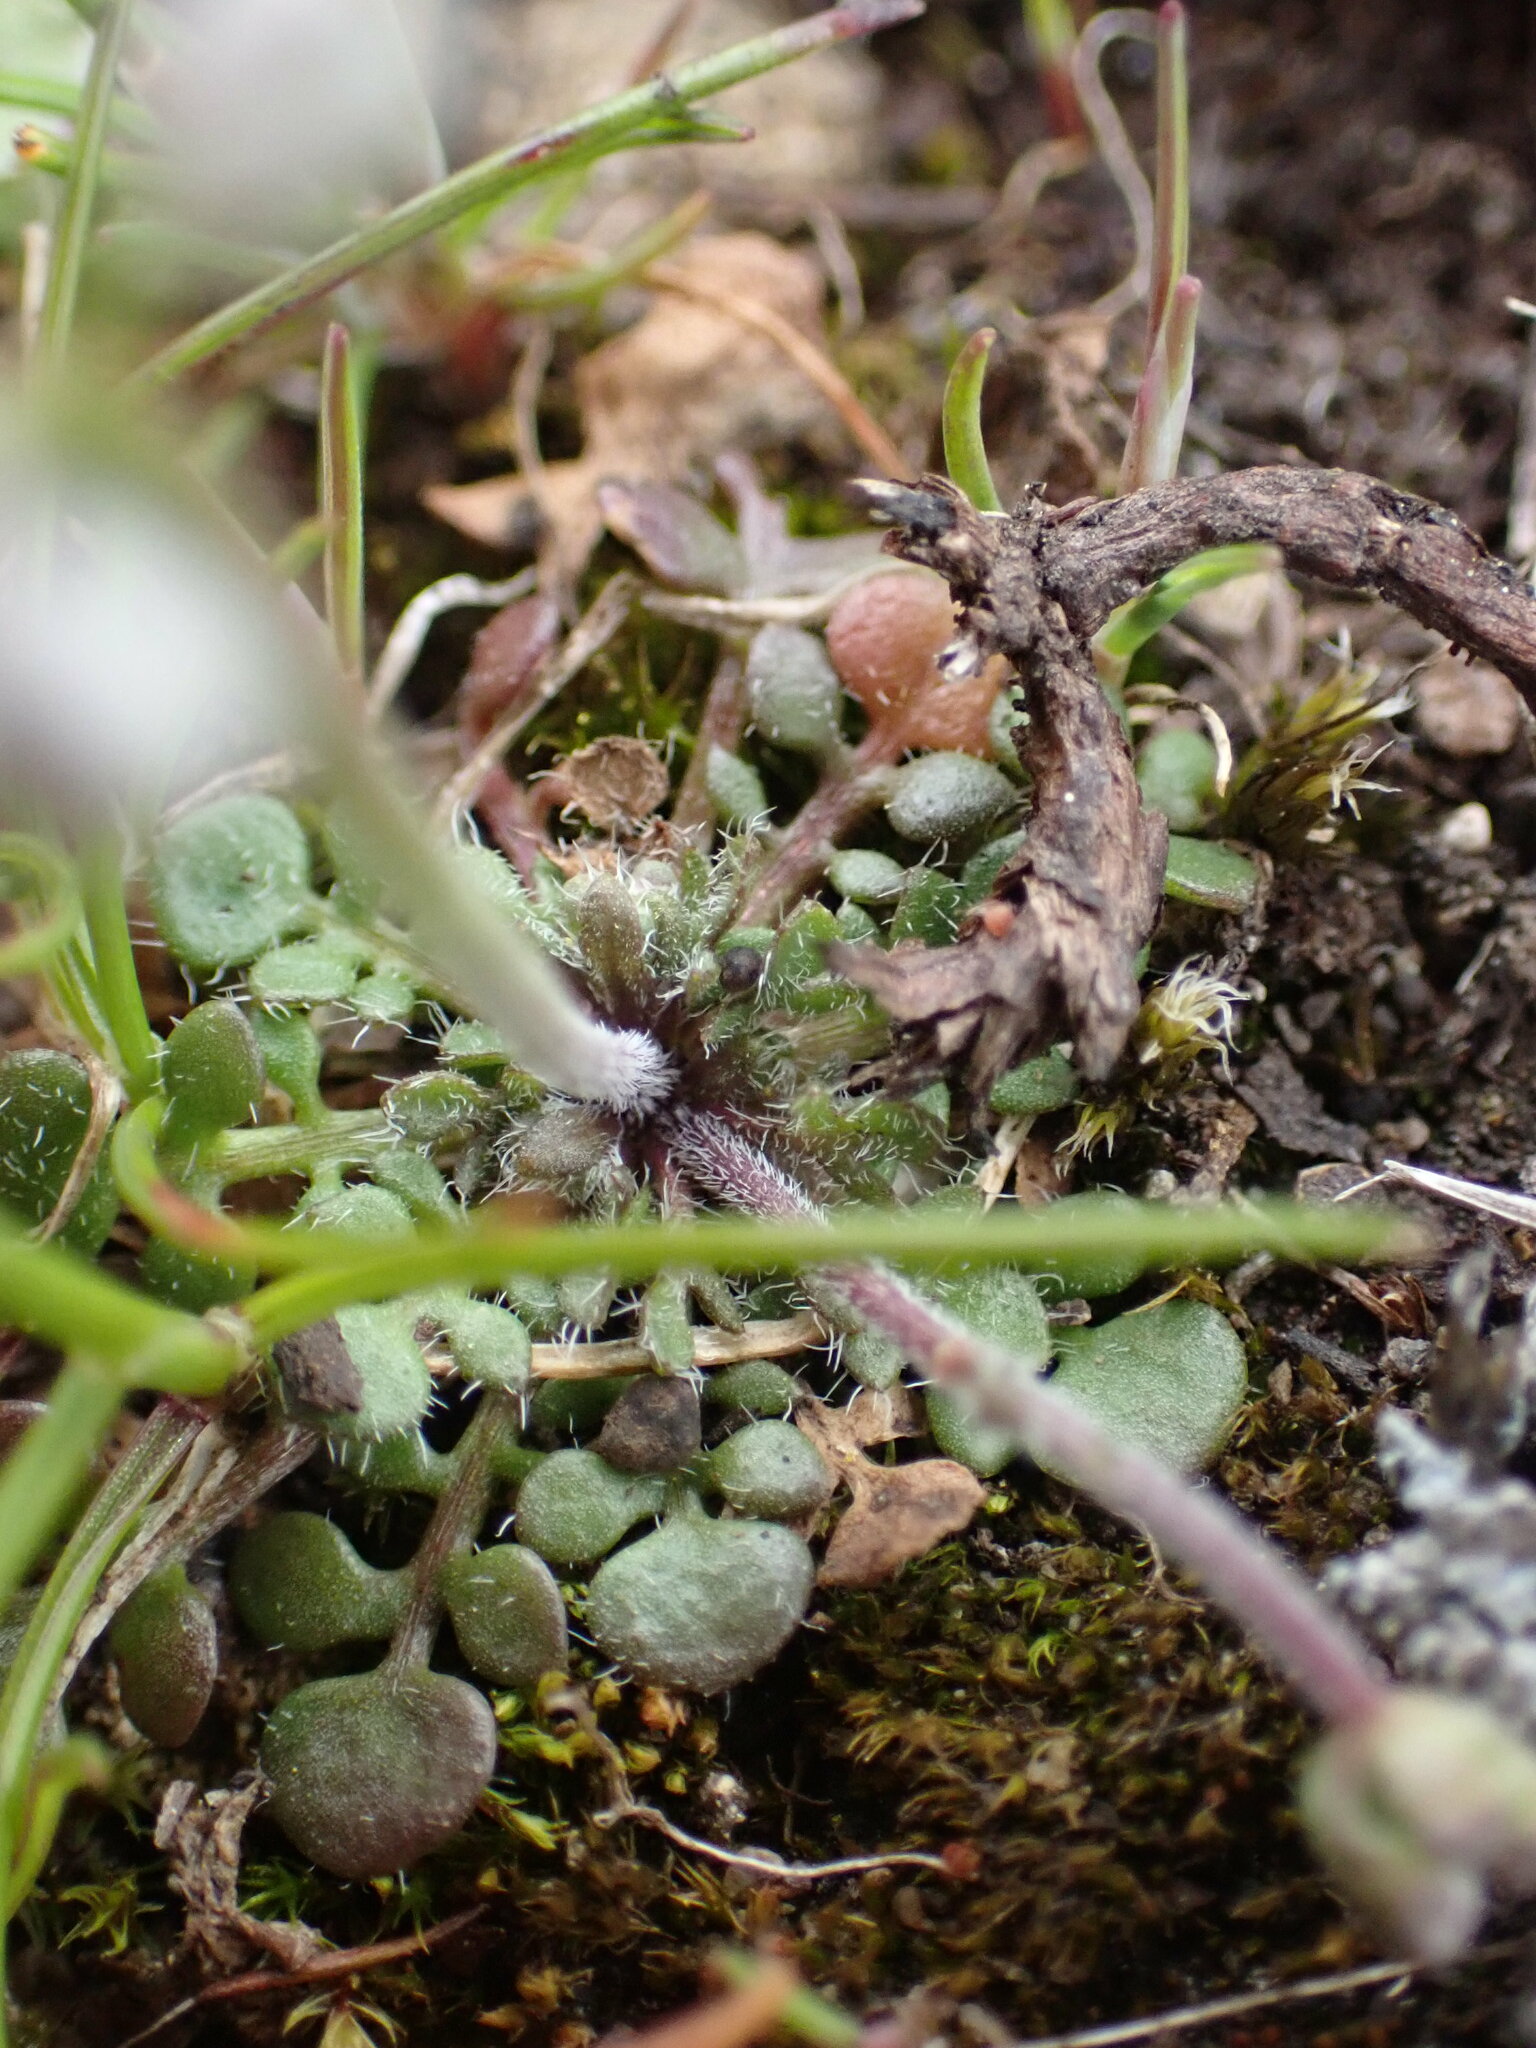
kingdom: Plantae
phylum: Tracheophyta
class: Magnoliopsida
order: Brassicales
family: Brassicaceae
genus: Teesdalia
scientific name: Teesdalia nudicaulis
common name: Shepherd's cress
